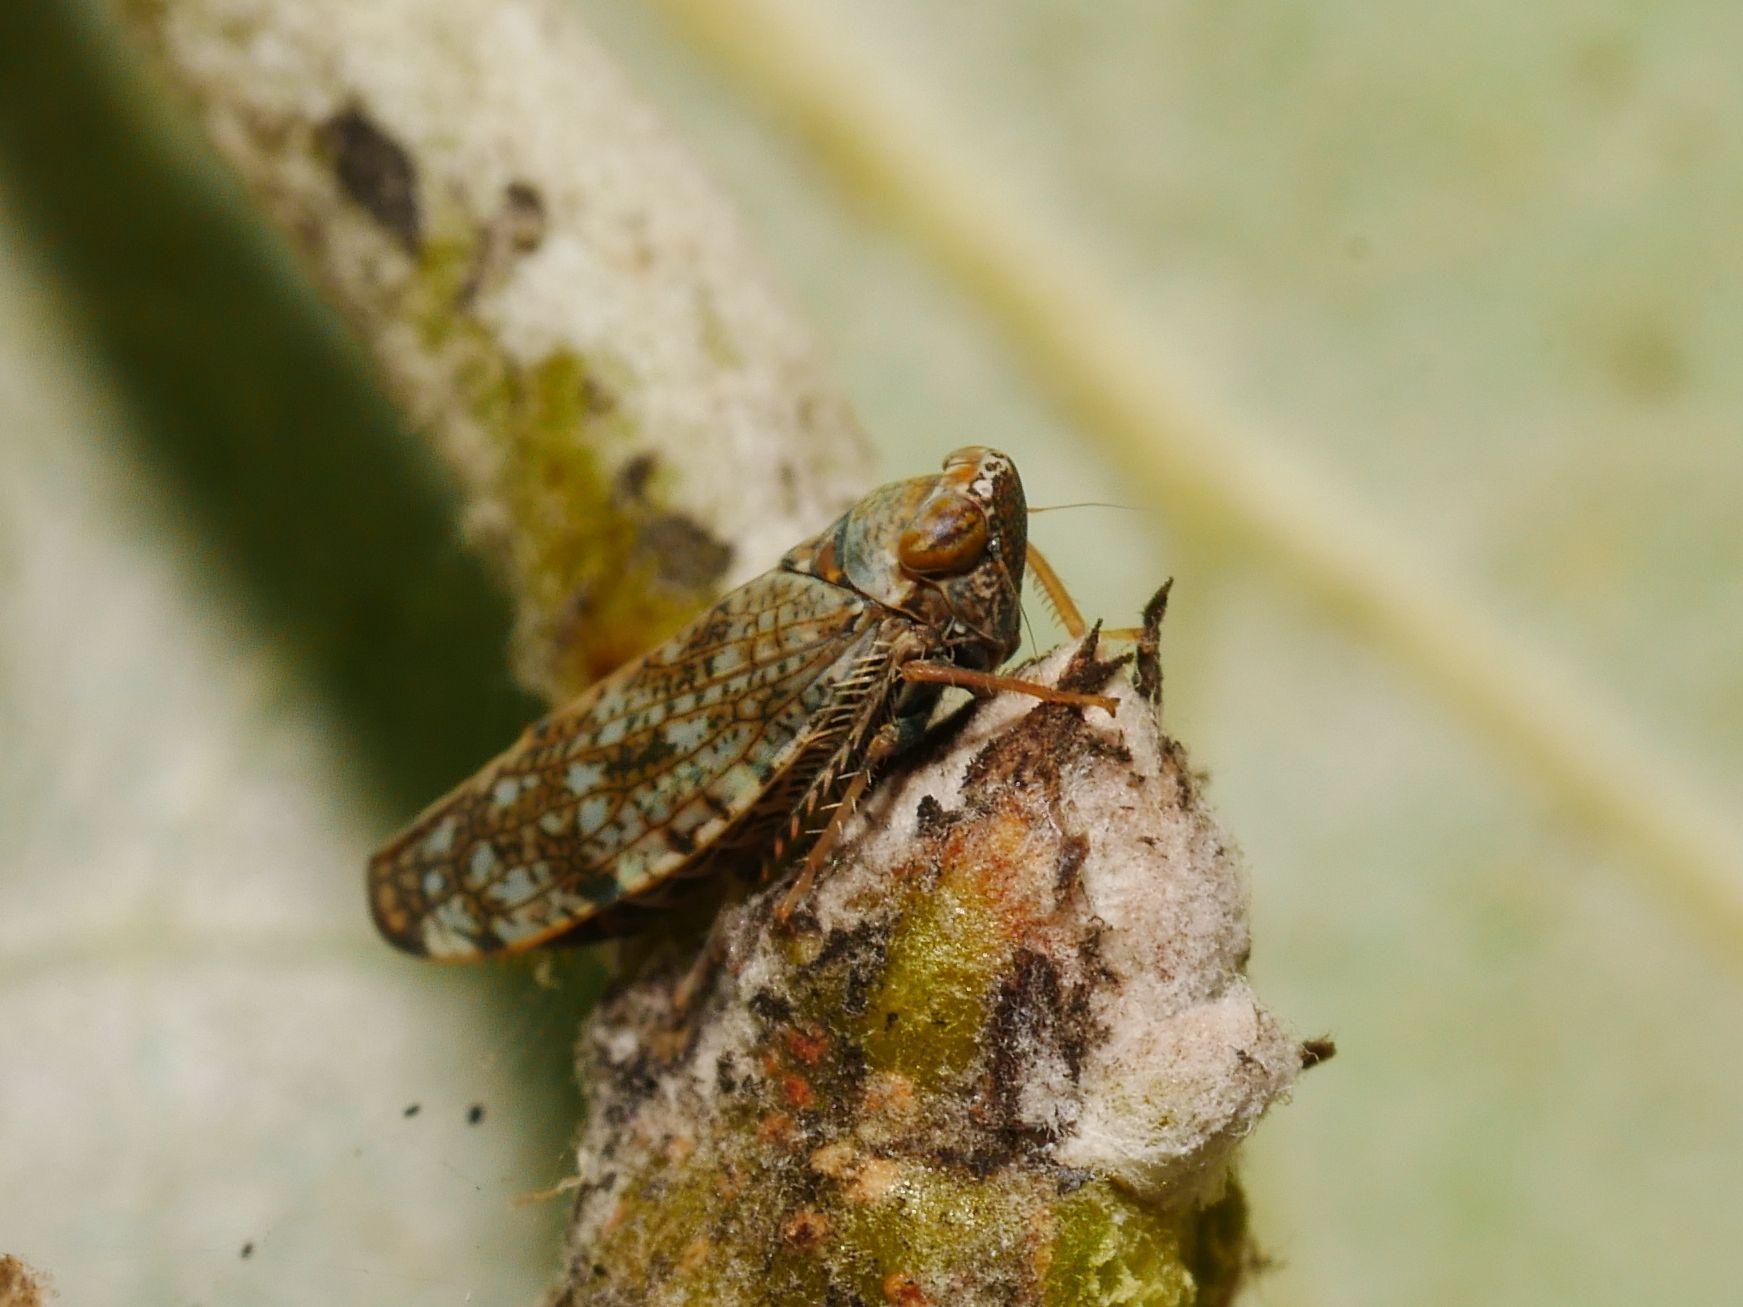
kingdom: Animalia
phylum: Arthropoda
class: Insecta
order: Hemiptera
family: Cicadellidae
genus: Orientus
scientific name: Orientus ishidae
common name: Japanese leafhopper
